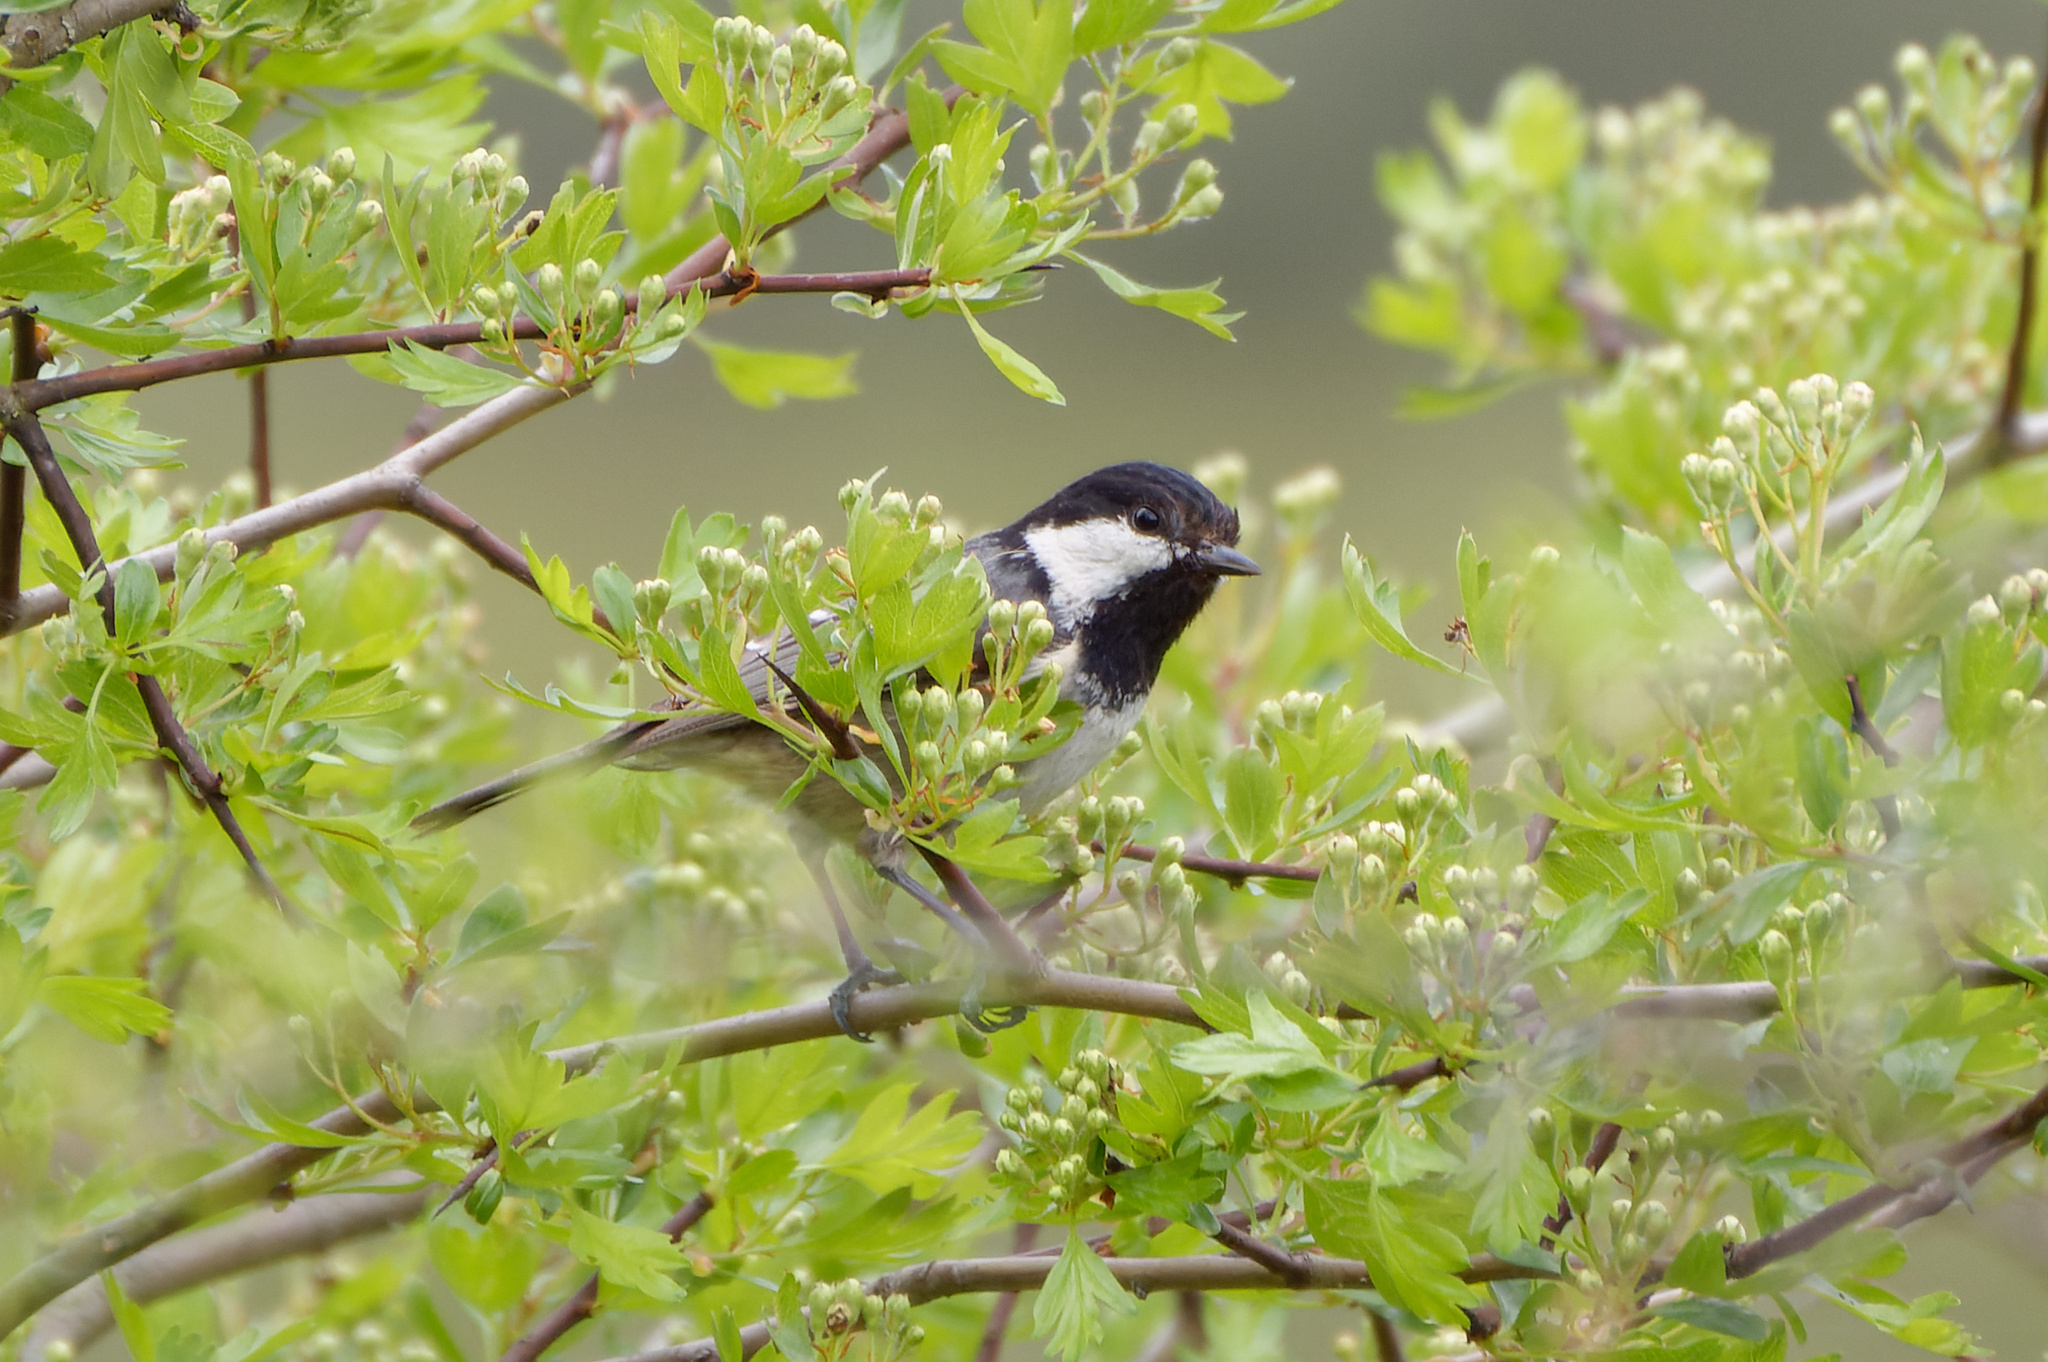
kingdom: Animalia
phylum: Chordata
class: Aves
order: Passeriformes
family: Paridae
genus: Periparus
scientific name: Periparus ater
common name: Coal tit
